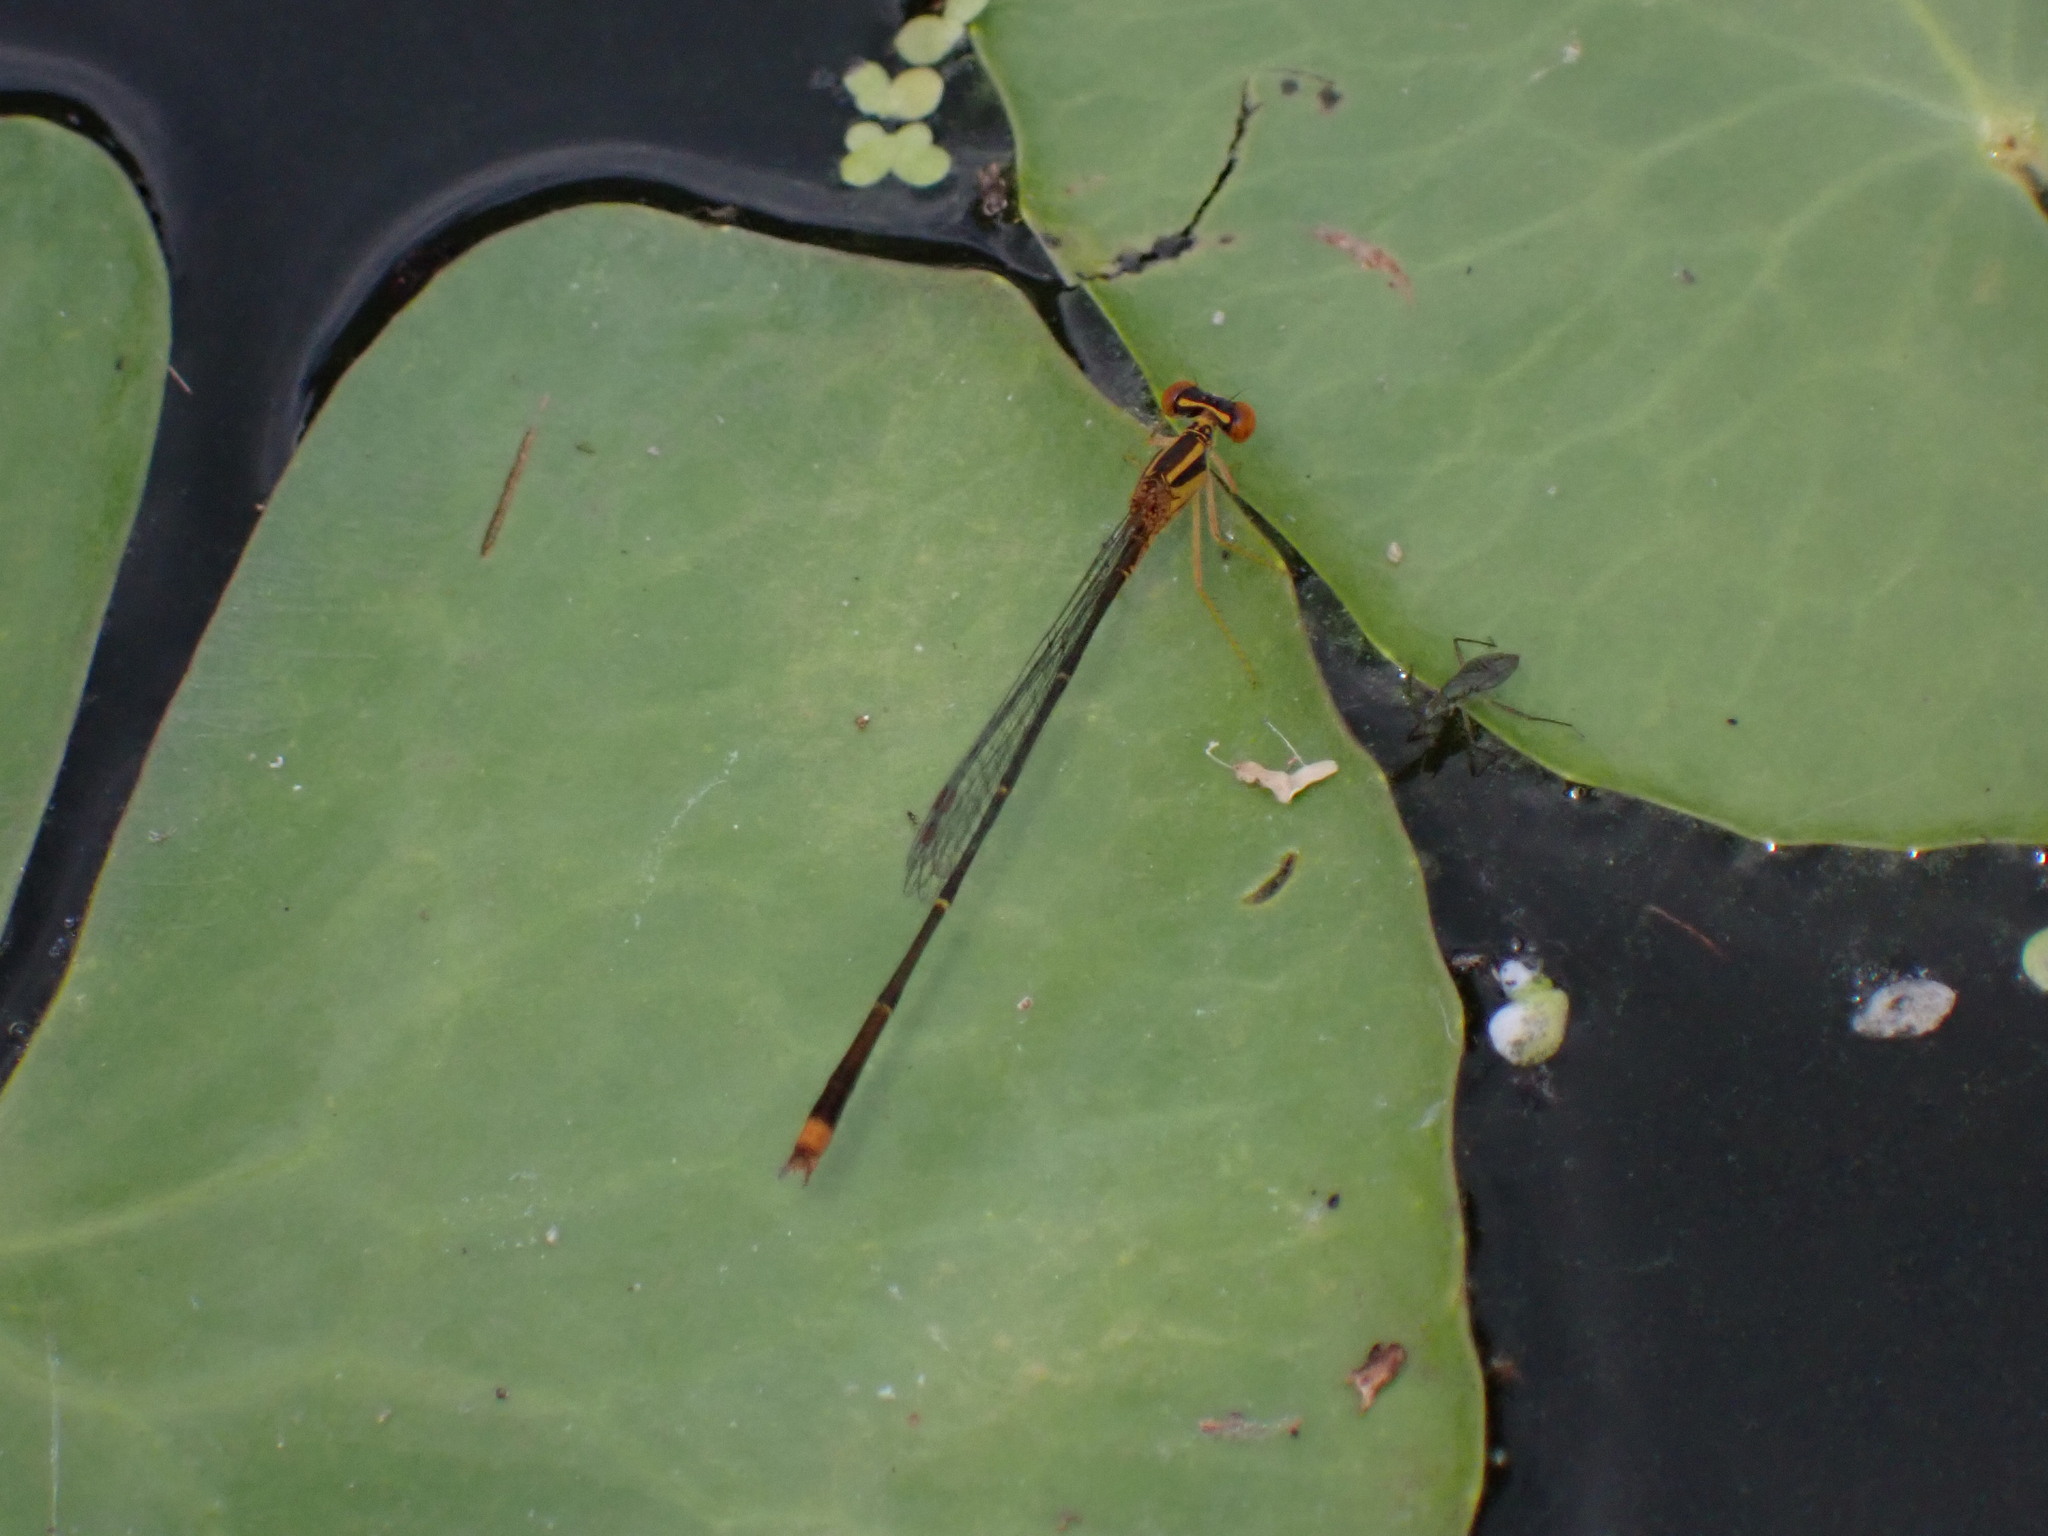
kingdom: Animalia
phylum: Arthropoda
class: Insecta
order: Odonata
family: Coenagrionidae
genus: Enallagma
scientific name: Enallagma signatum
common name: Orange bluet
